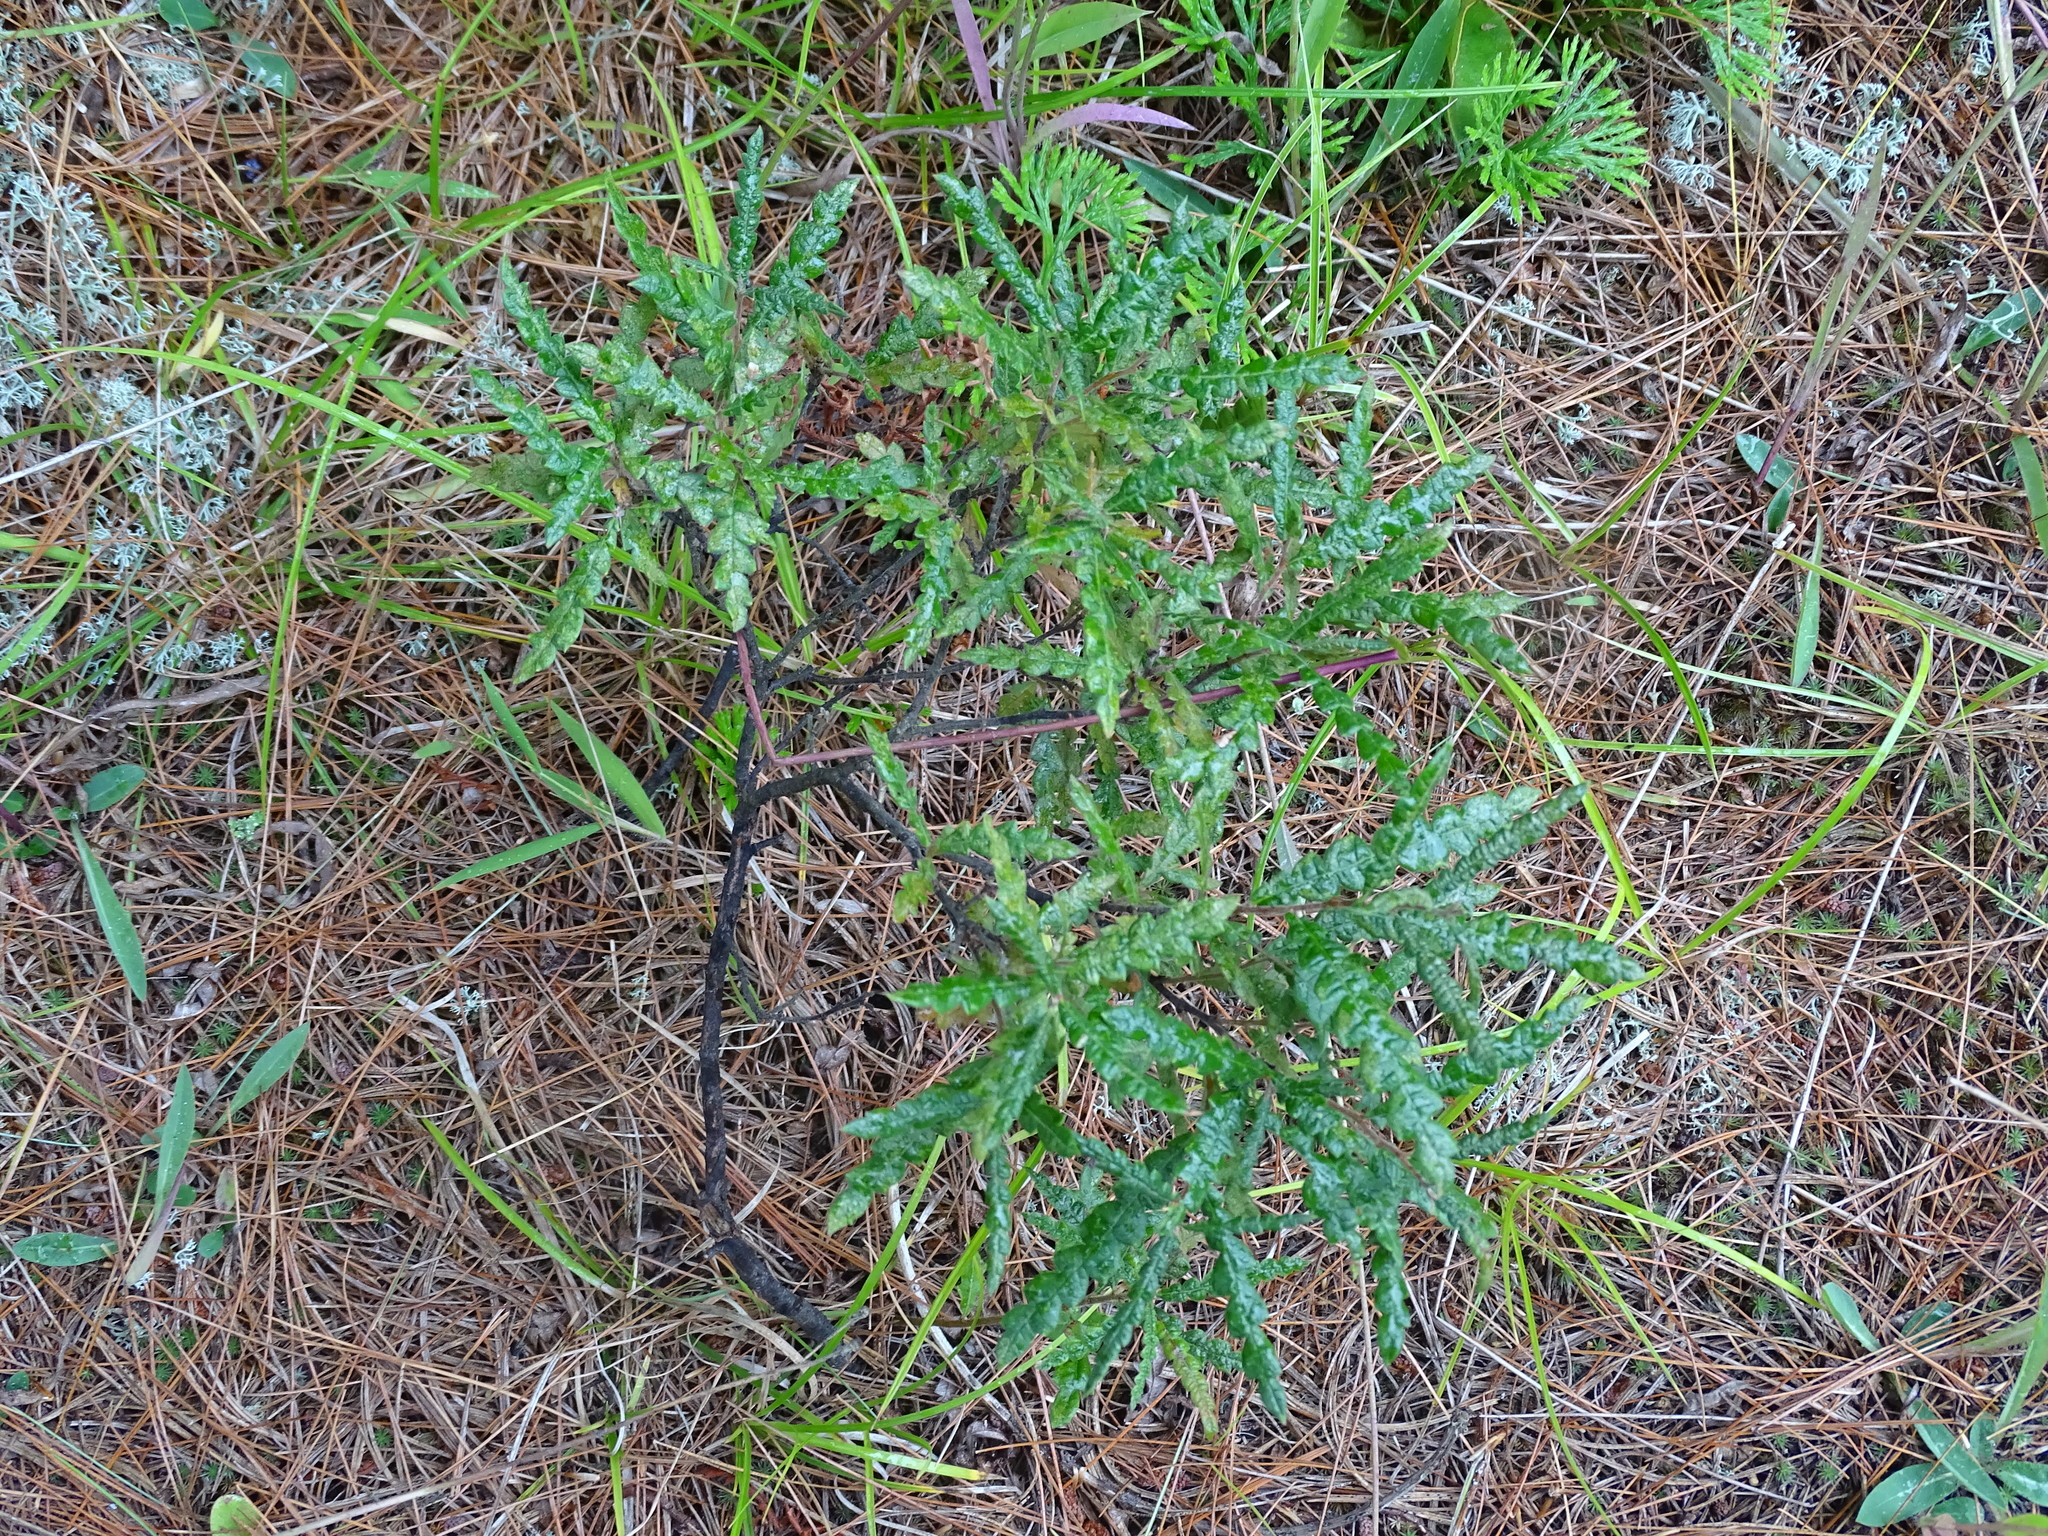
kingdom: Plantae
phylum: Tracheophyta
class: Magnoliopsida
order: Fagales
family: Myricaceae
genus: Comptonia
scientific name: Comptonia peregrina
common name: Sweet-fern
